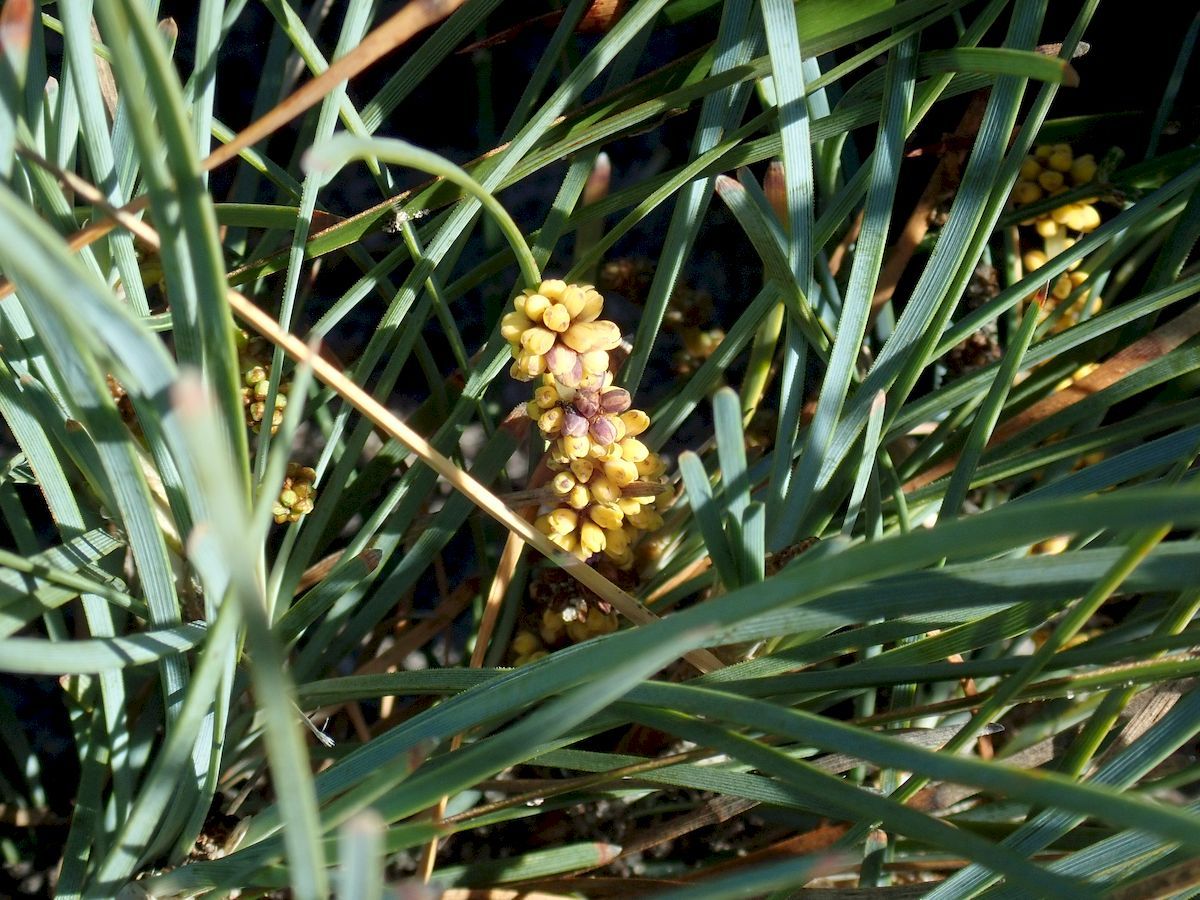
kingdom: Plantae
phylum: Tracheophyta
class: Liliopsida
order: Asparagales
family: Asparagaceae
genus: Lomandra
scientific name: Lomandra glauca
